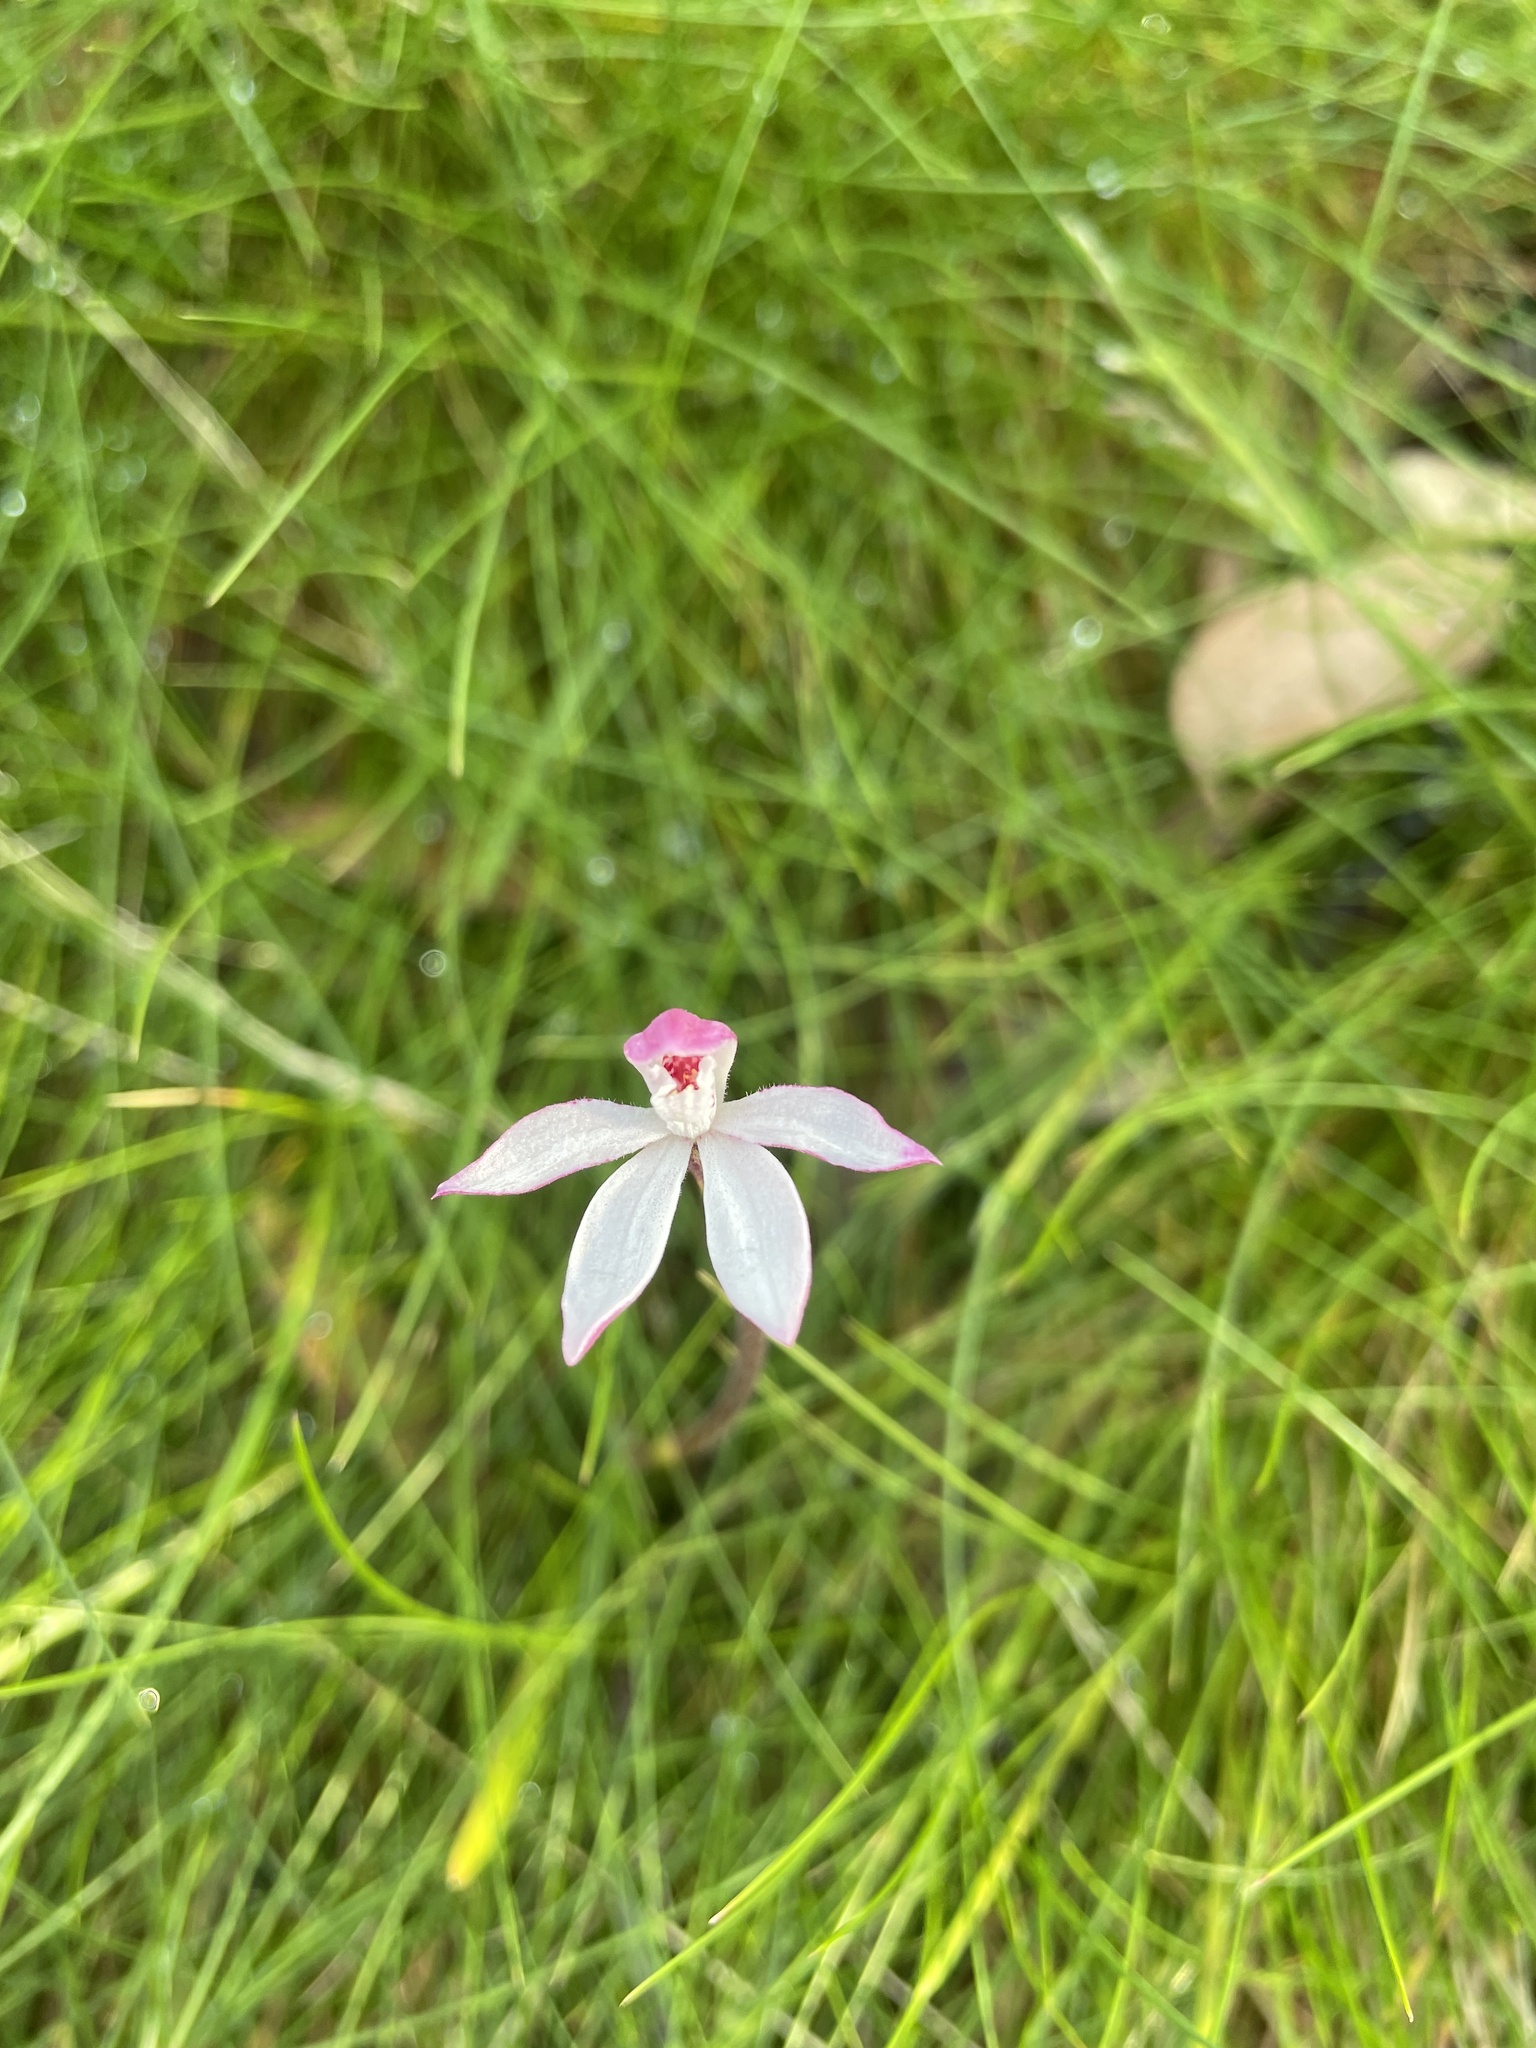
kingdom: Plantae
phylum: Tracheophyta
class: Liliopsida
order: Asparagales
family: Orchidaceae
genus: Caladenia
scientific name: Caladenia alpina
